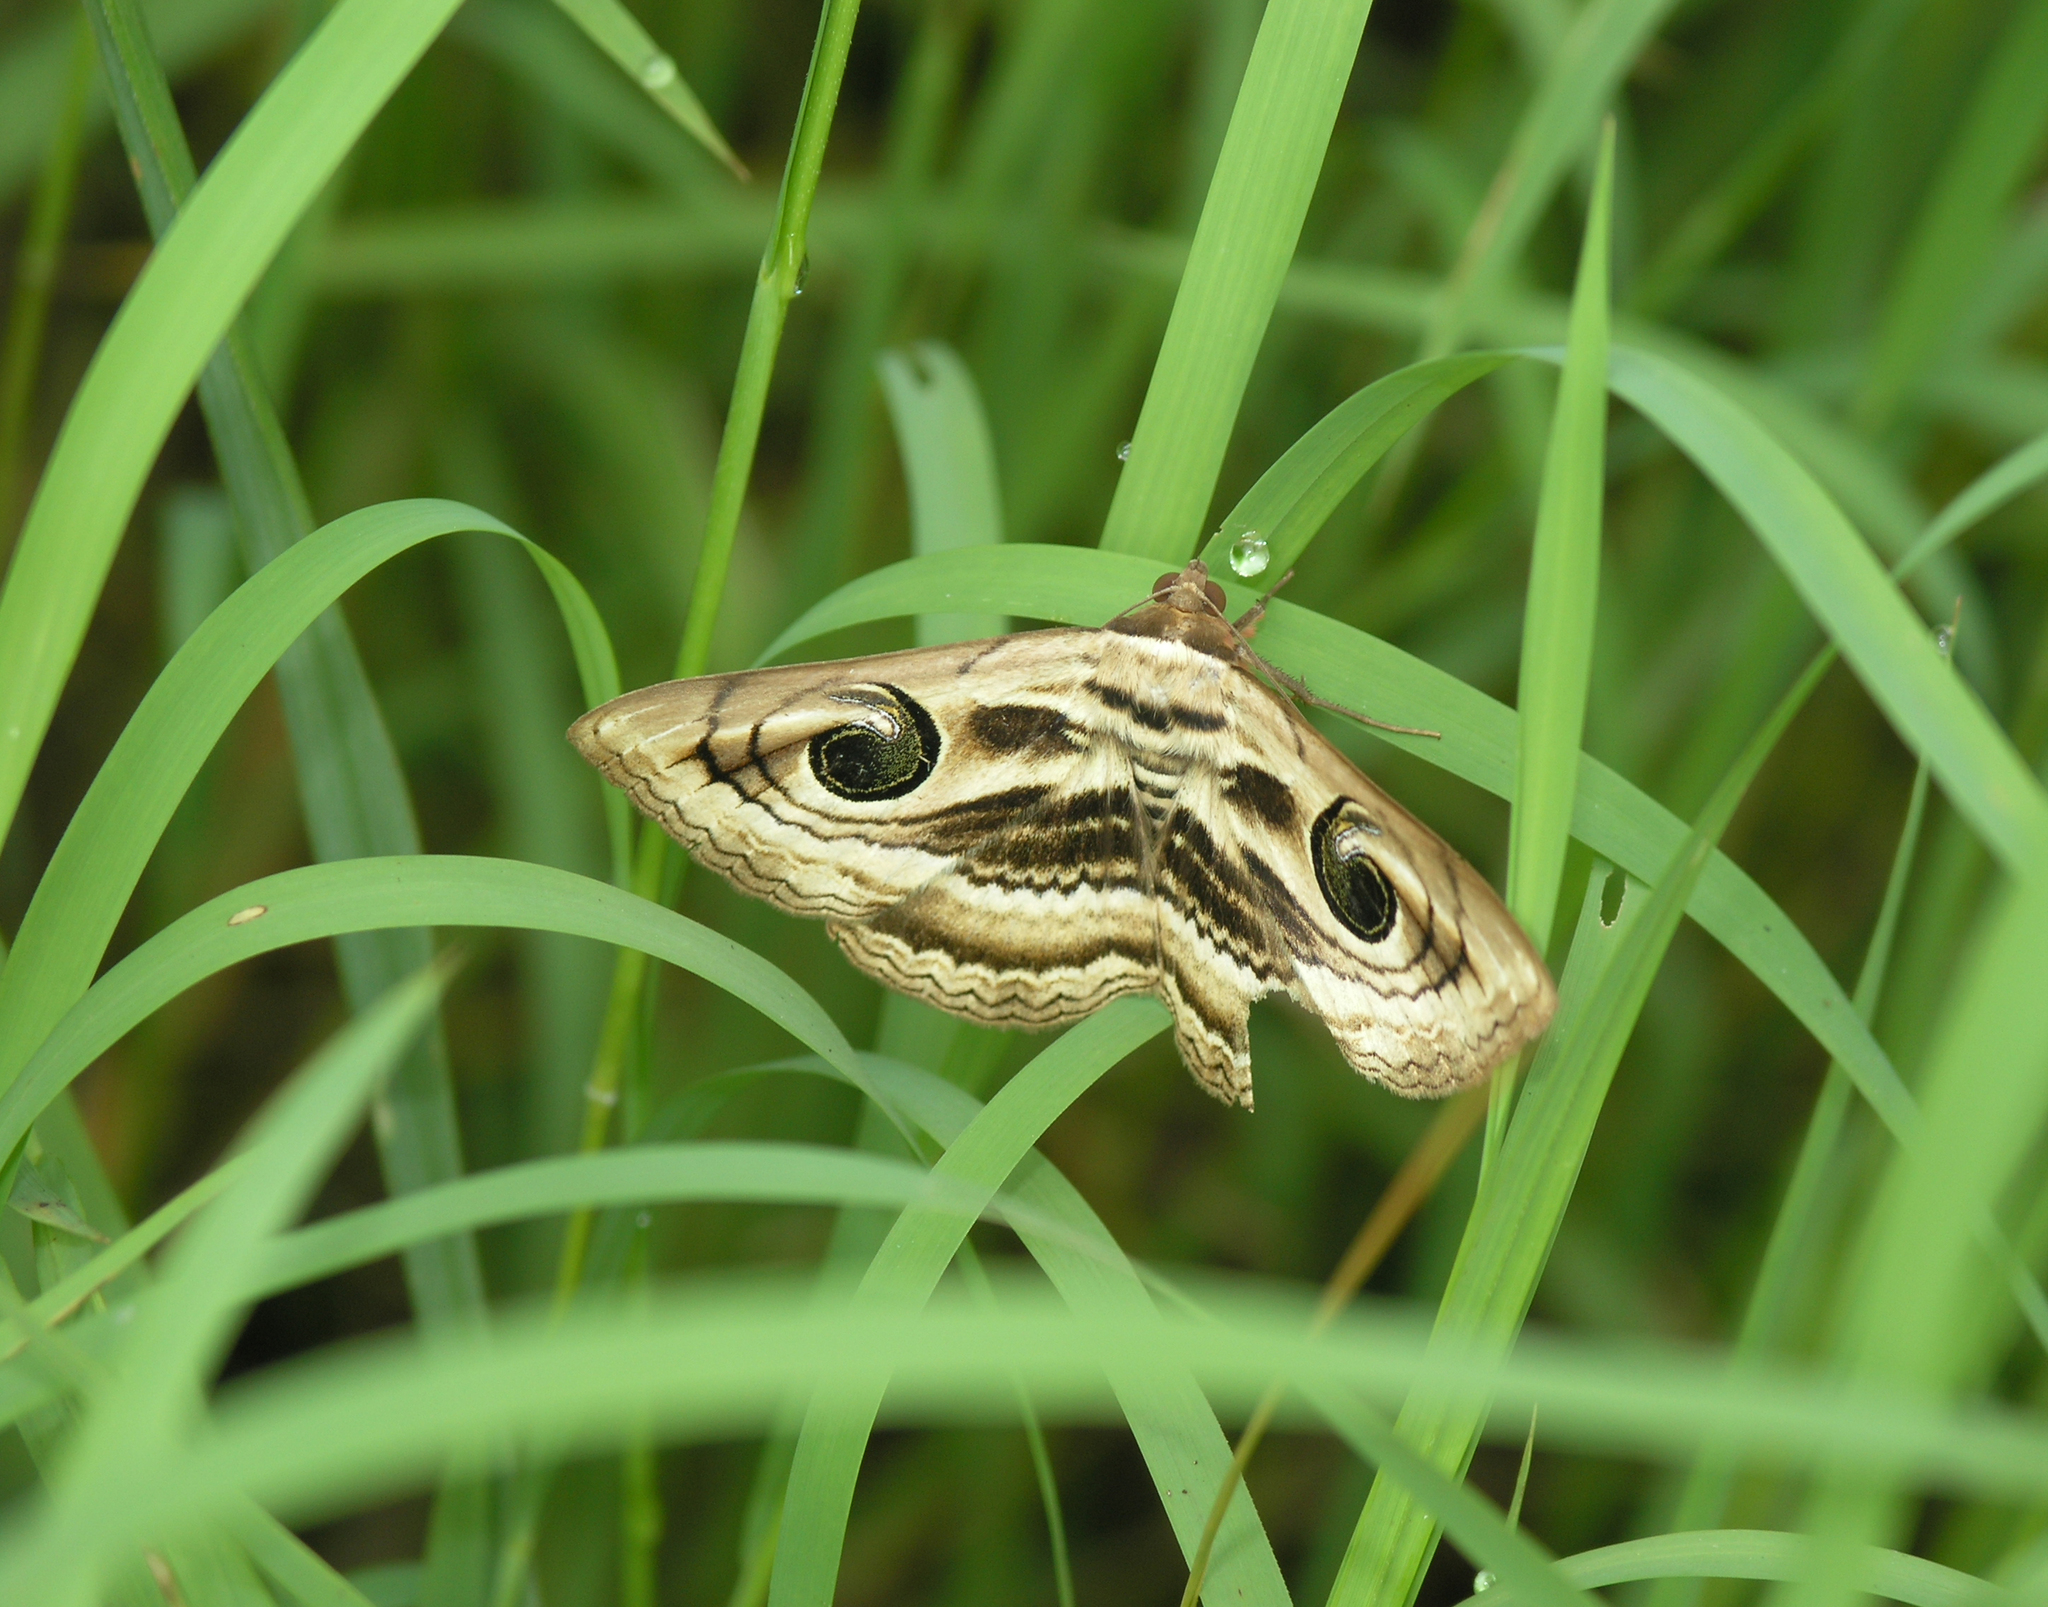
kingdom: Animalia
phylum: Arthropoda
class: Insecta
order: Lepidoptera
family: Erebidae
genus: Spirama
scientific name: Spirama helicina
